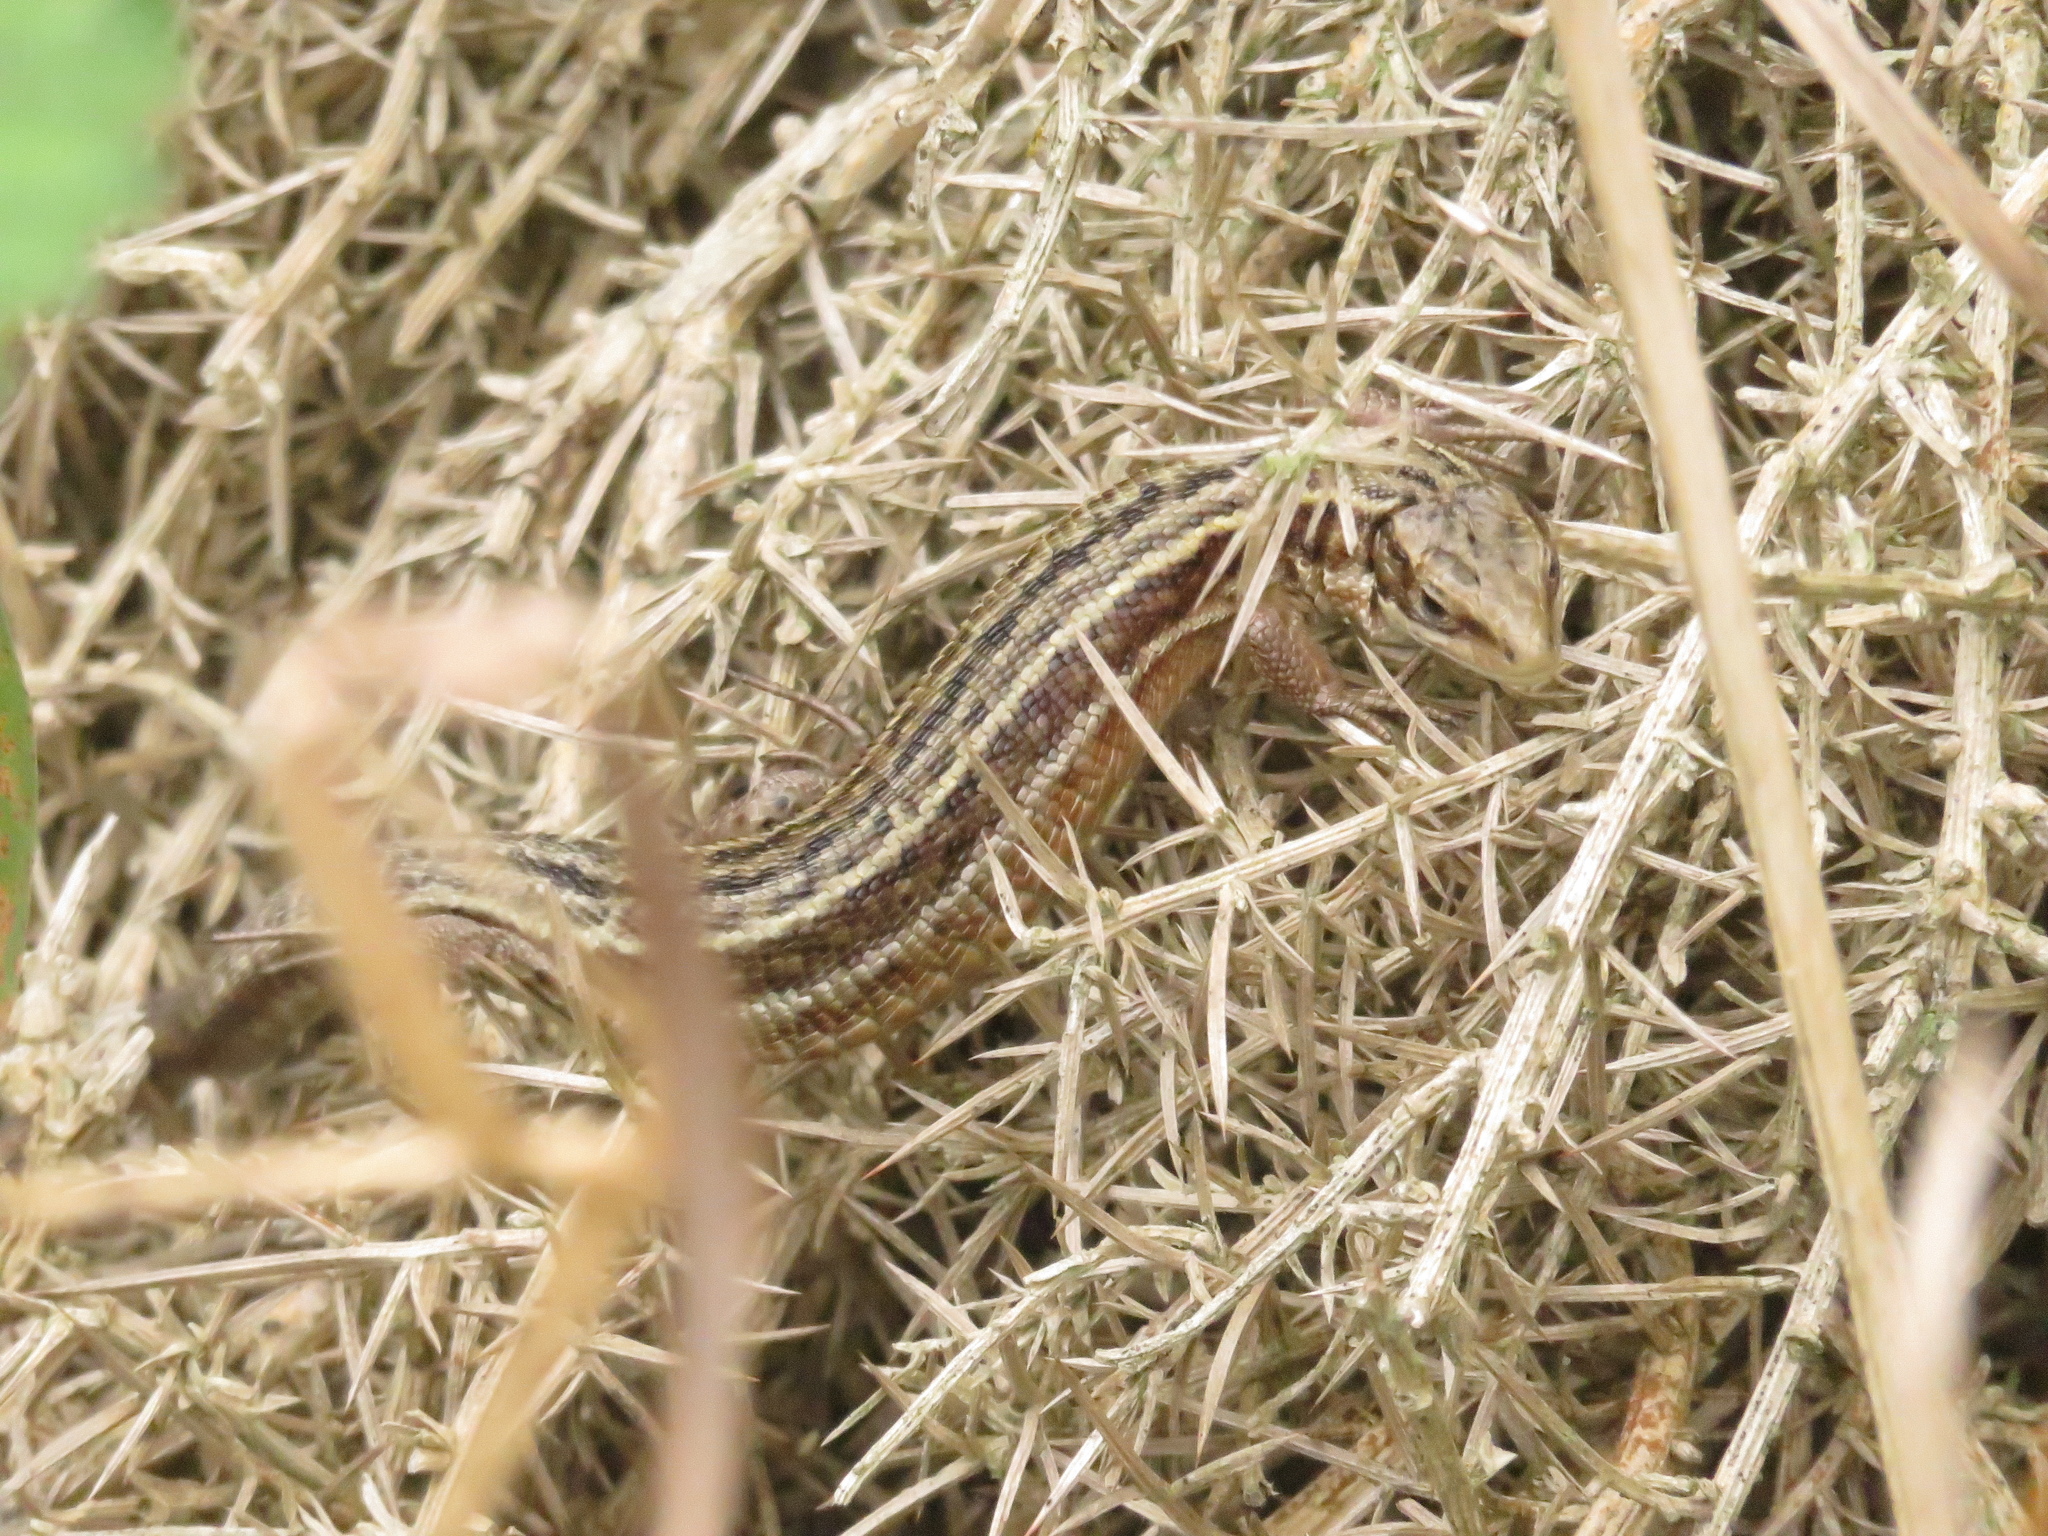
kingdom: Animalia
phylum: Chordata
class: Squamata
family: Lacertidae
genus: Zootoca
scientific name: Zootoca vivipara
